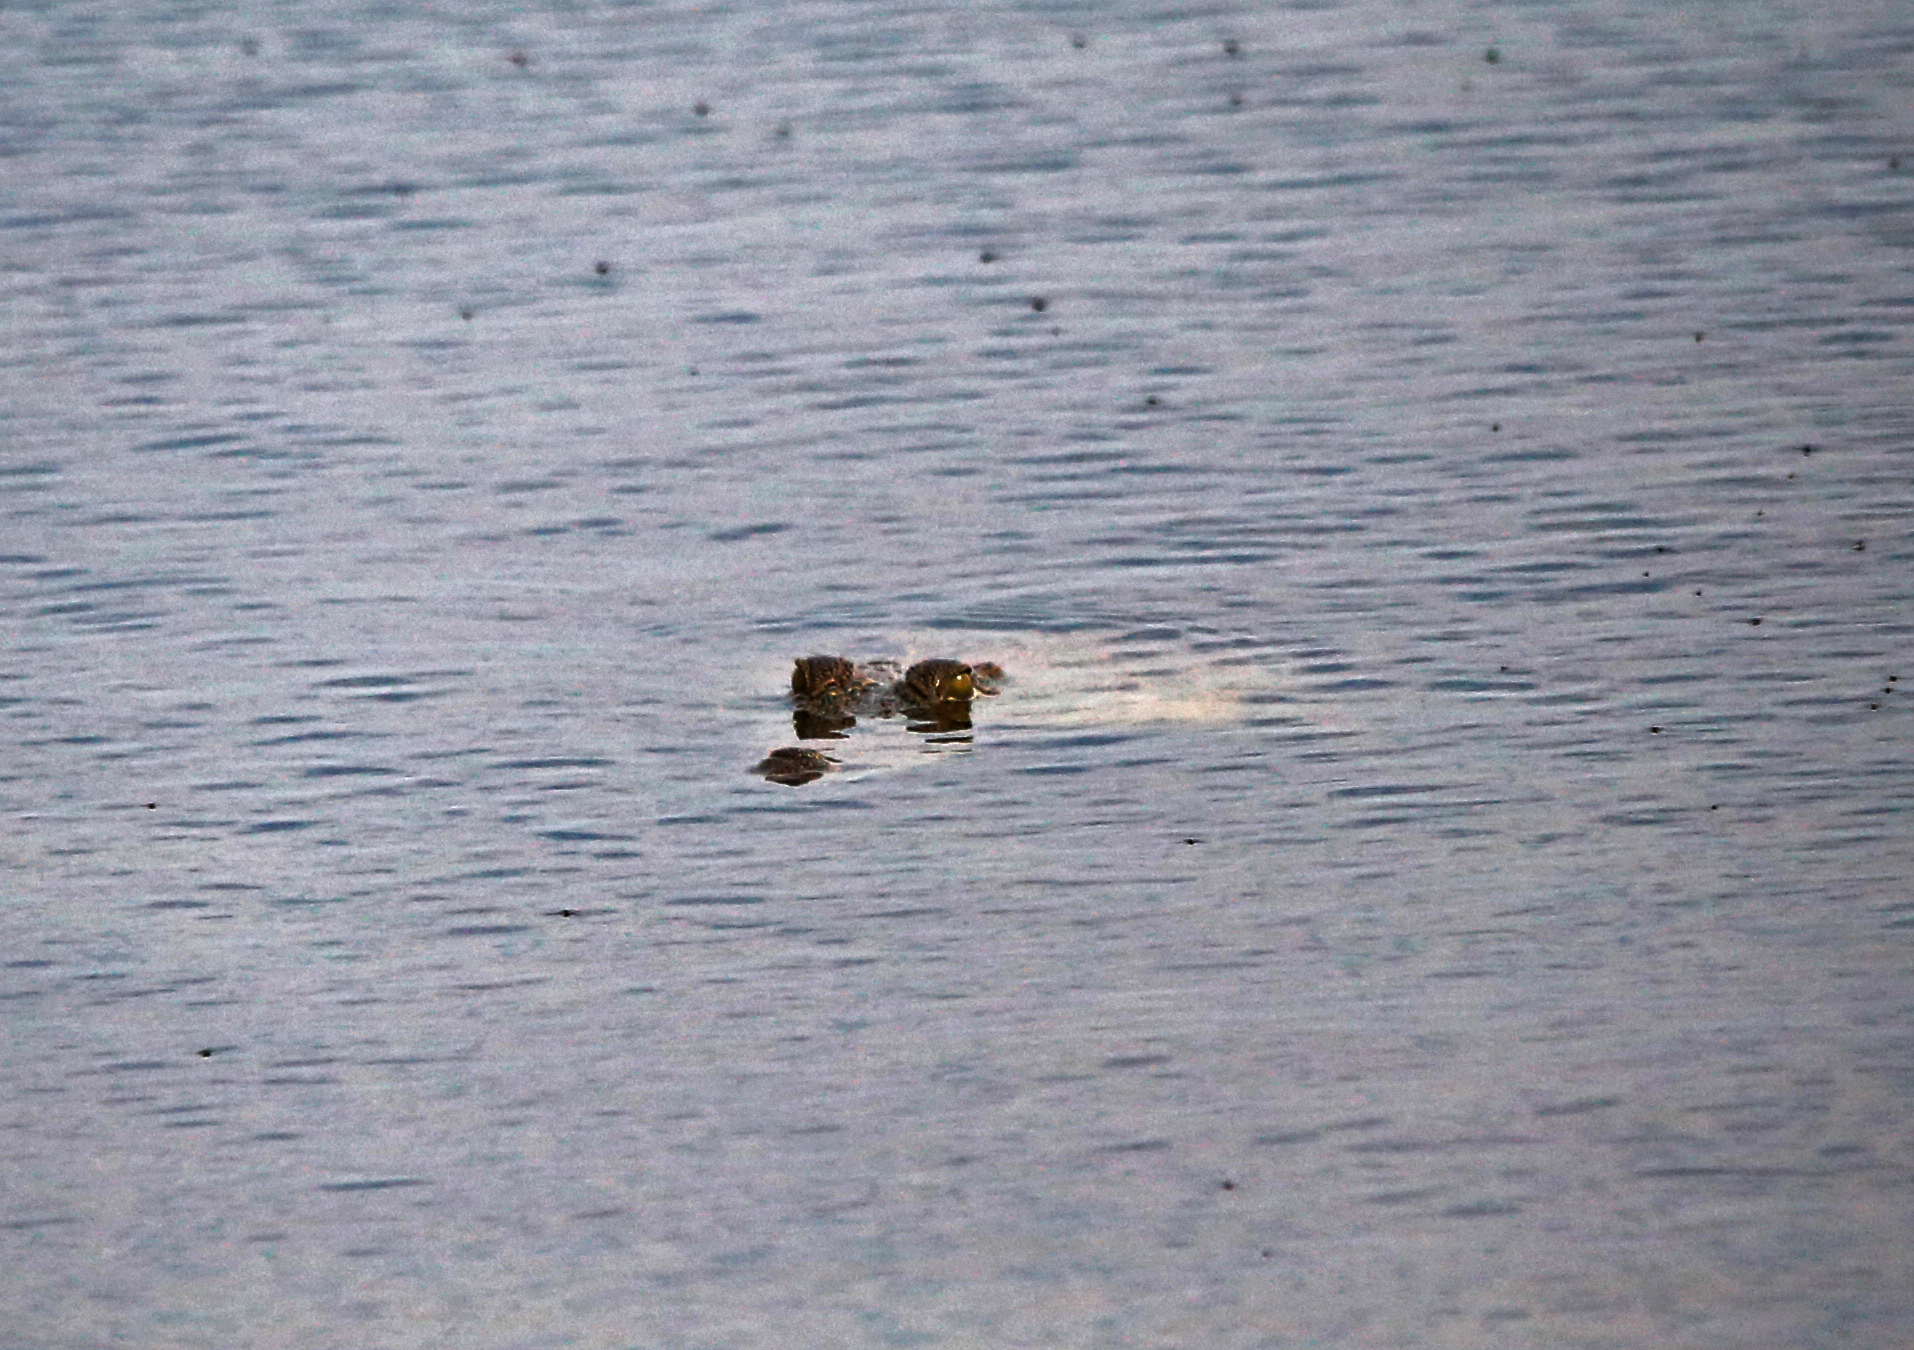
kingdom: Animalia
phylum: Chordata
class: Crocodylia
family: Crocodylidae
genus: Crocodylus
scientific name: Crocodylus niloticus
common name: Nile crocodile
